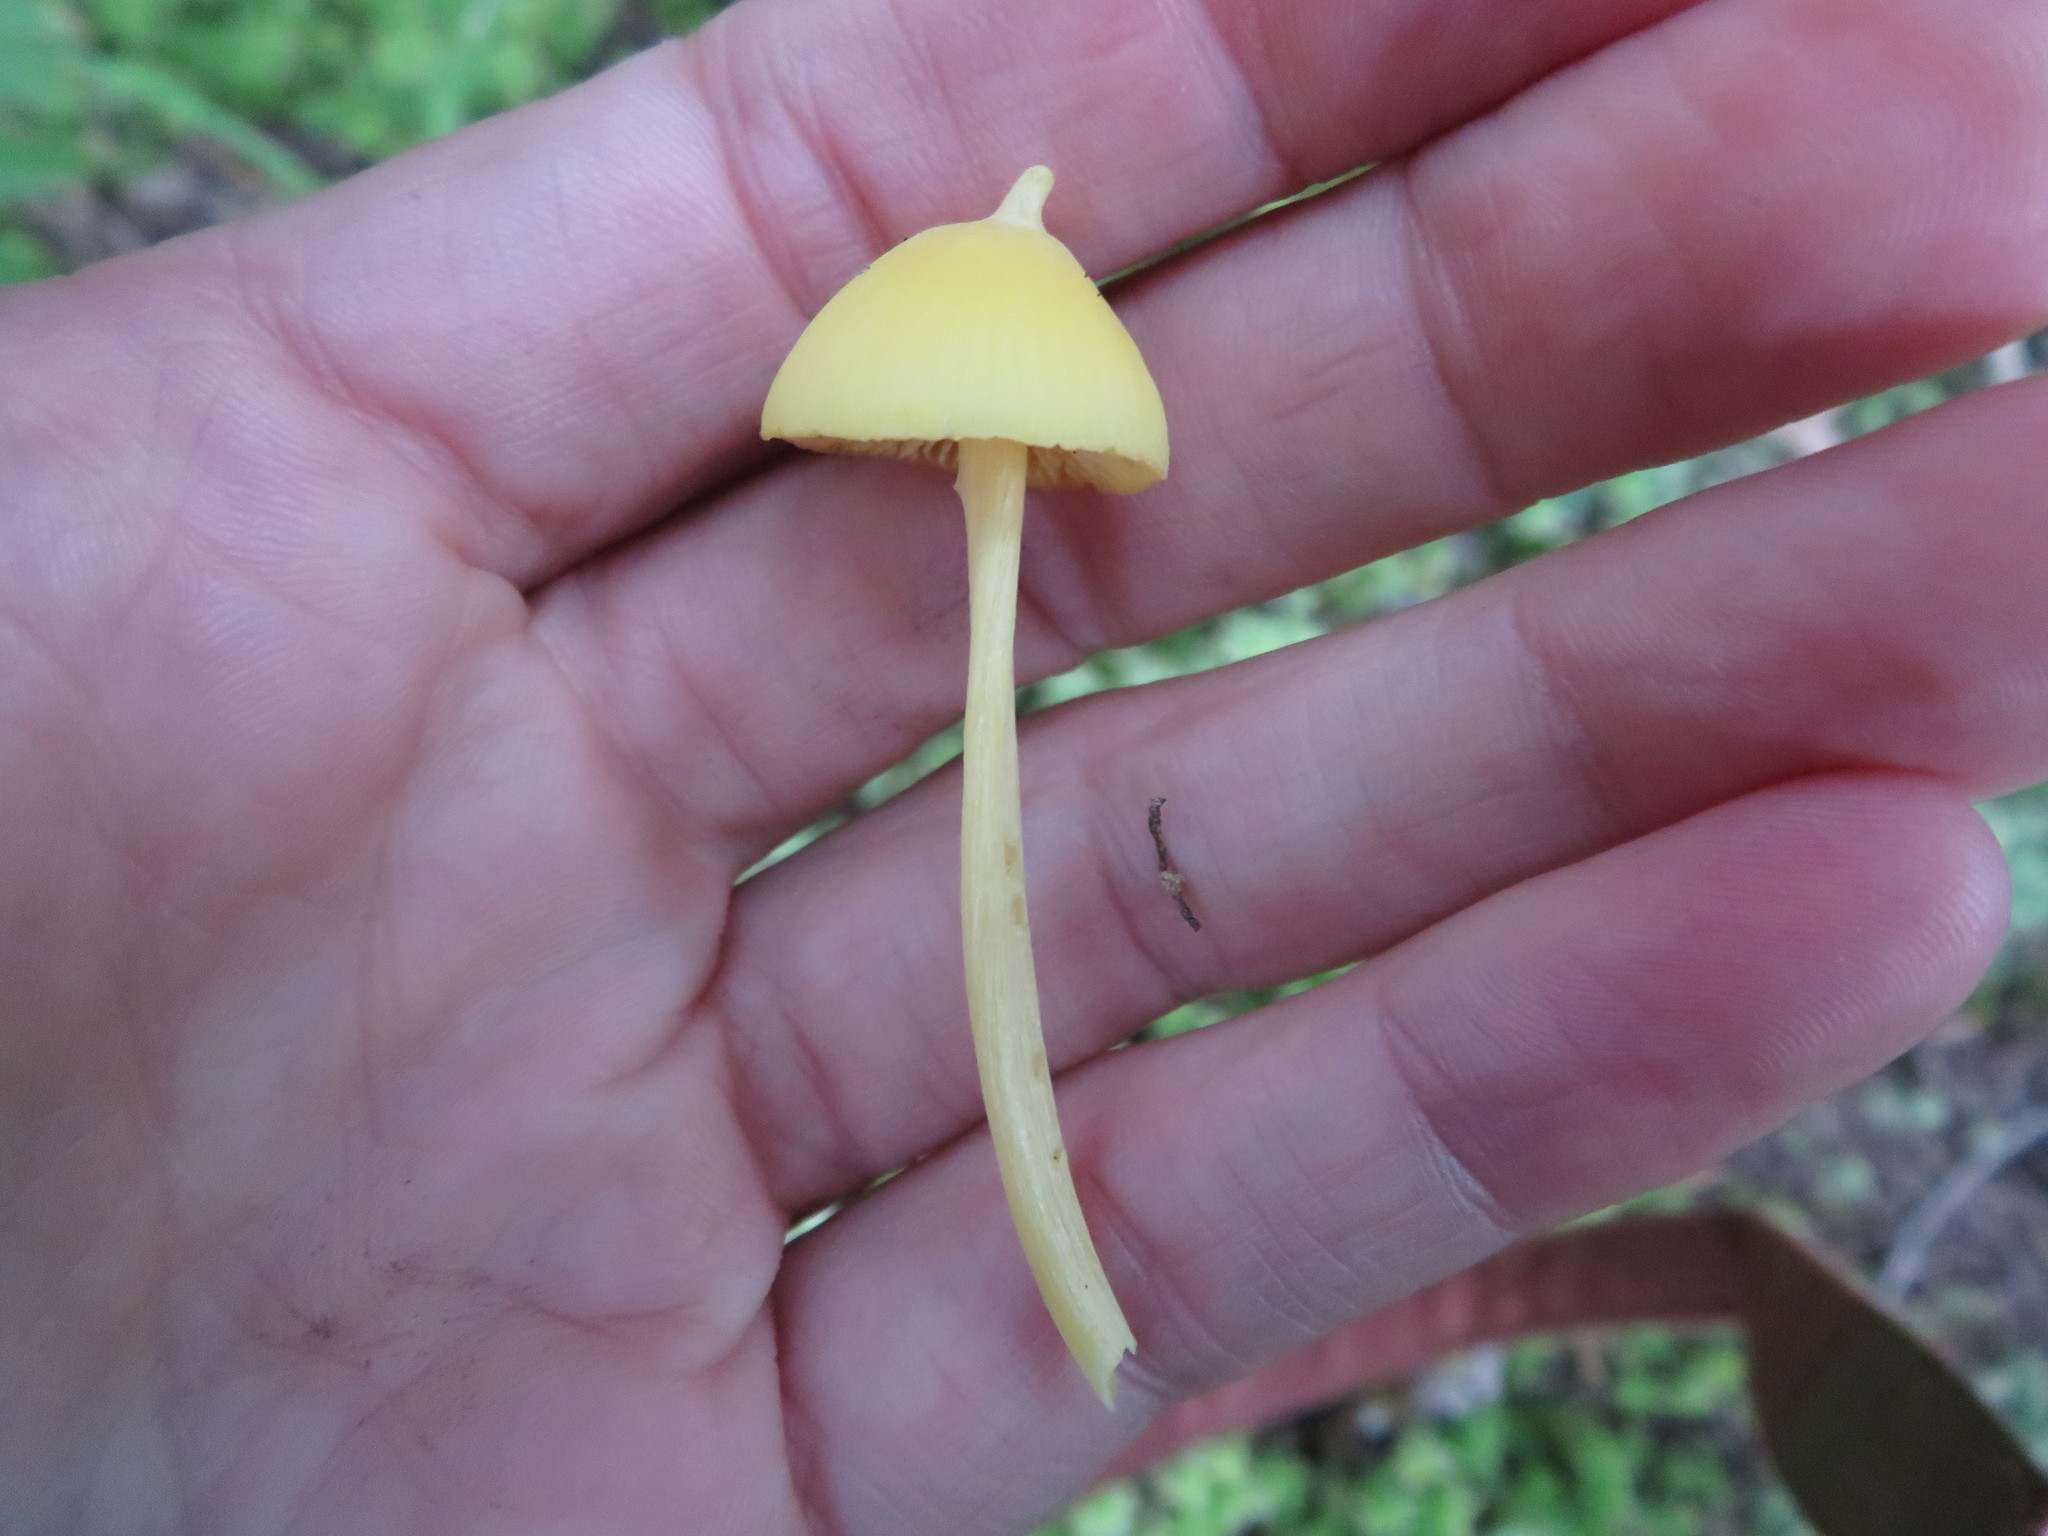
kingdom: Fungi
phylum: Basidiomycota
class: Agaricomycetes
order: Agaricales
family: Entolomataceae
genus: Entoloma
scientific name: Entoloma murrayi
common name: Yellow unicorn entoloma
